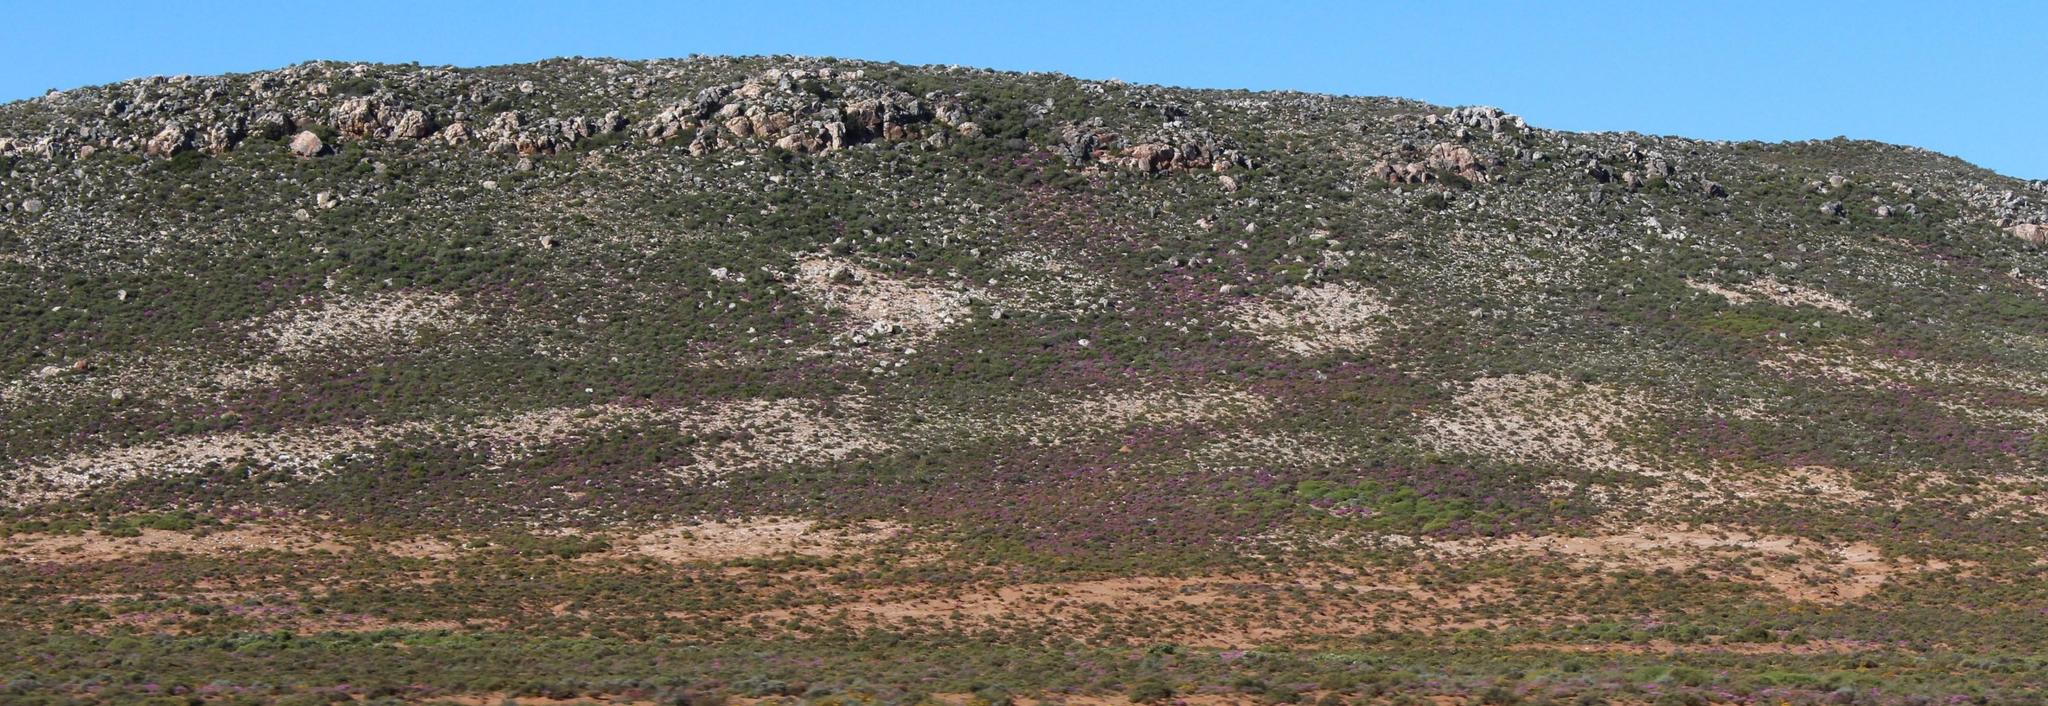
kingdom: Animalia
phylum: Arthropoda
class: Insecta
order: Blattodea
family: Hodotermitidae
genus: Microhodotermes
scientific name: Microhodotermes viator
